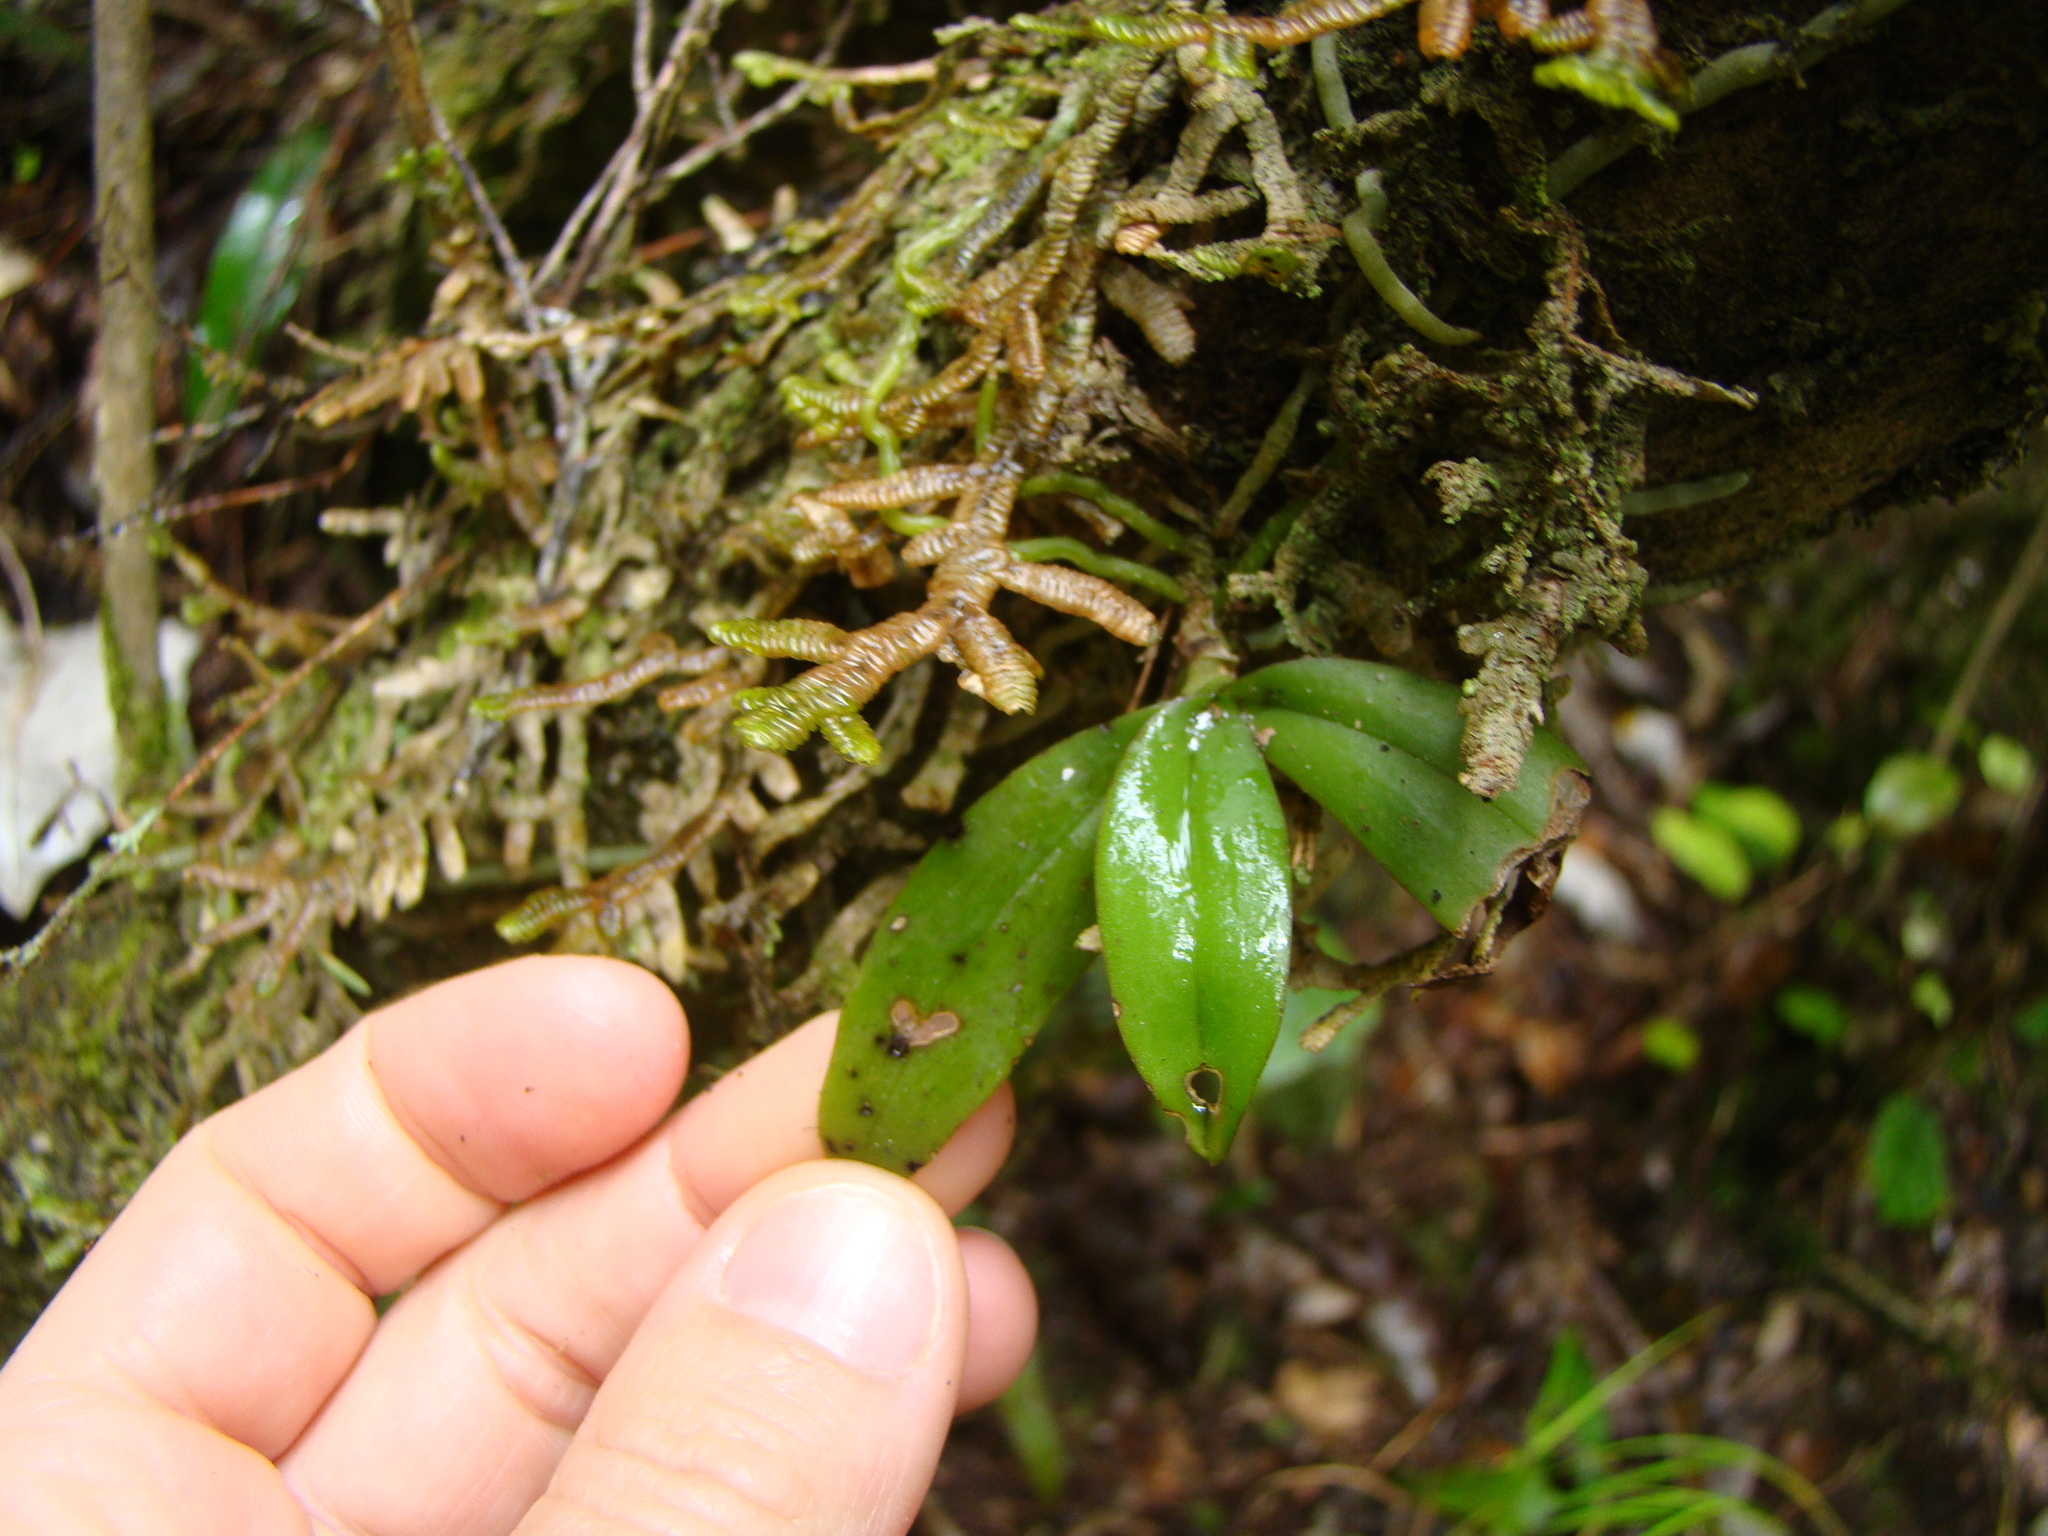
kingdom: Plantae
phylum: Tracheophyta
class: Liliopsida
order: Asparagales
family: Orchidaceae
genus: Drymoanthus
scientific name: Drymoanthus adversus
